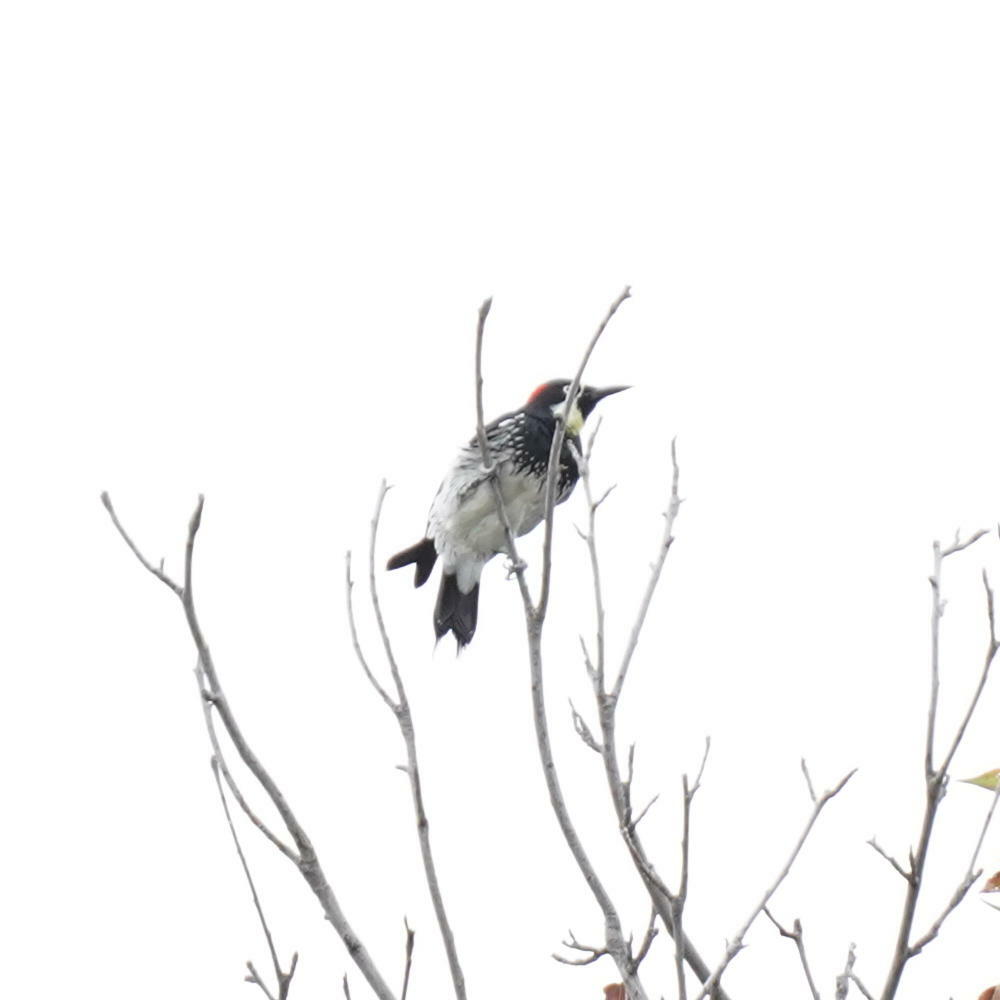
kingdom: Animalia
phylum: Chordata
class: Aves
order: Piciformes
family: Picidae
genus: Melanerpes
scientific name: Melanerpes formicivorus
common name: Acorn woodpecker
